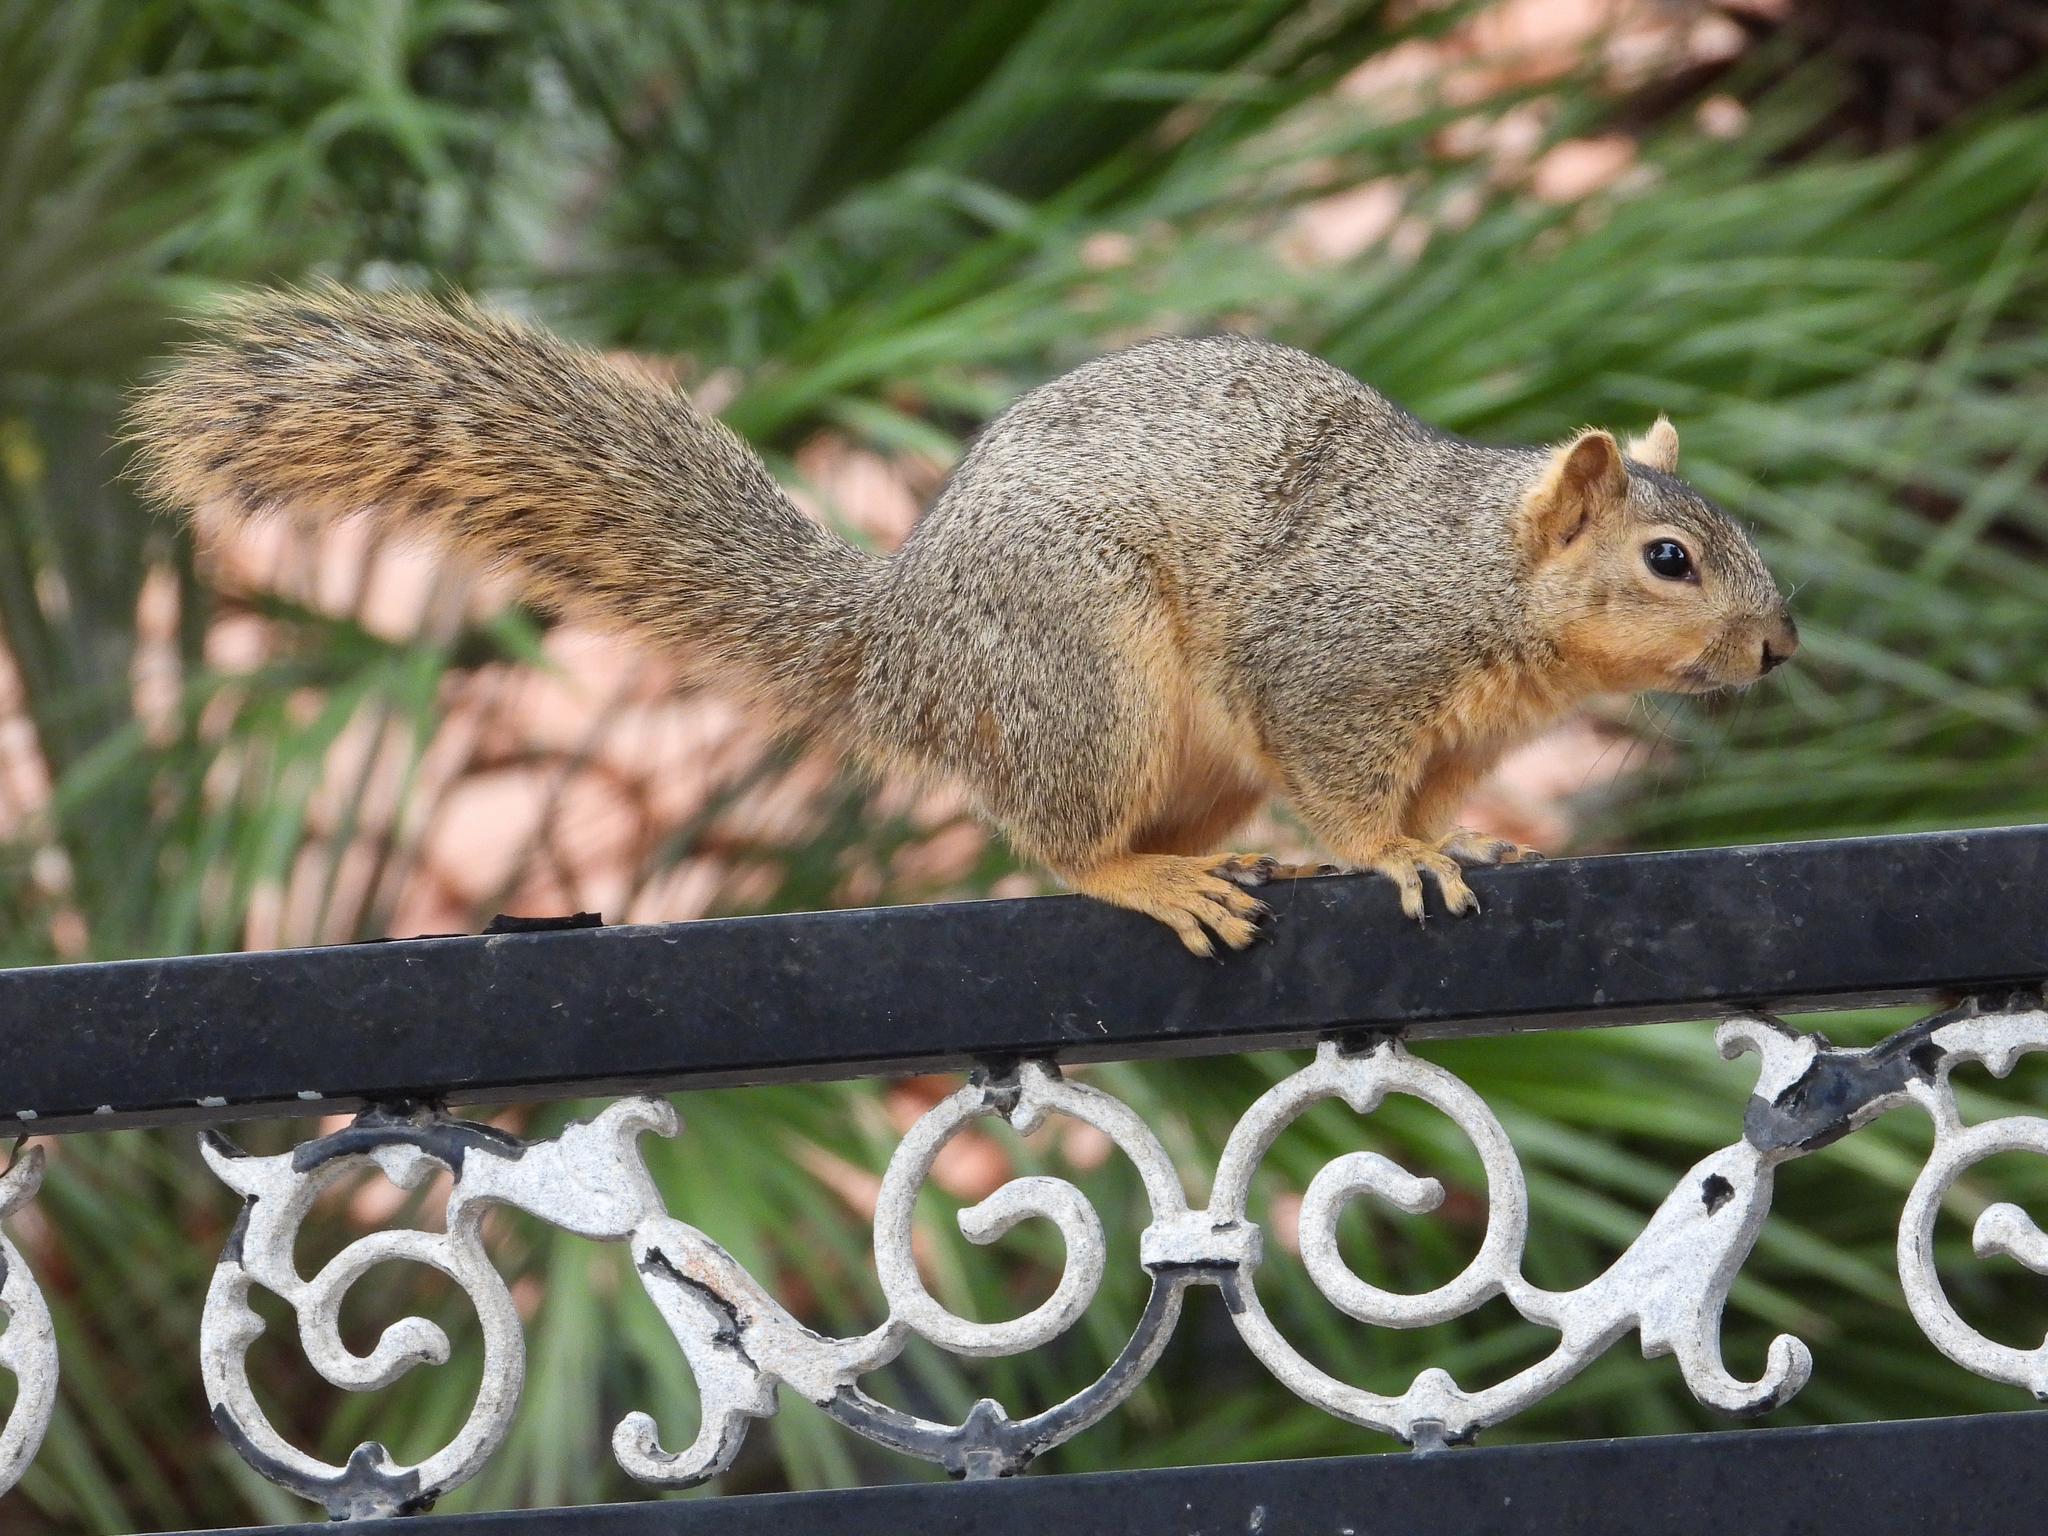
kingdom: Animalia
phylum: Chordata
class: Mammalia
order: Rodentia
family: Sciuridae
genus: Sciurus
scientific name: Sciurus niger
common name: Fox squirrel
